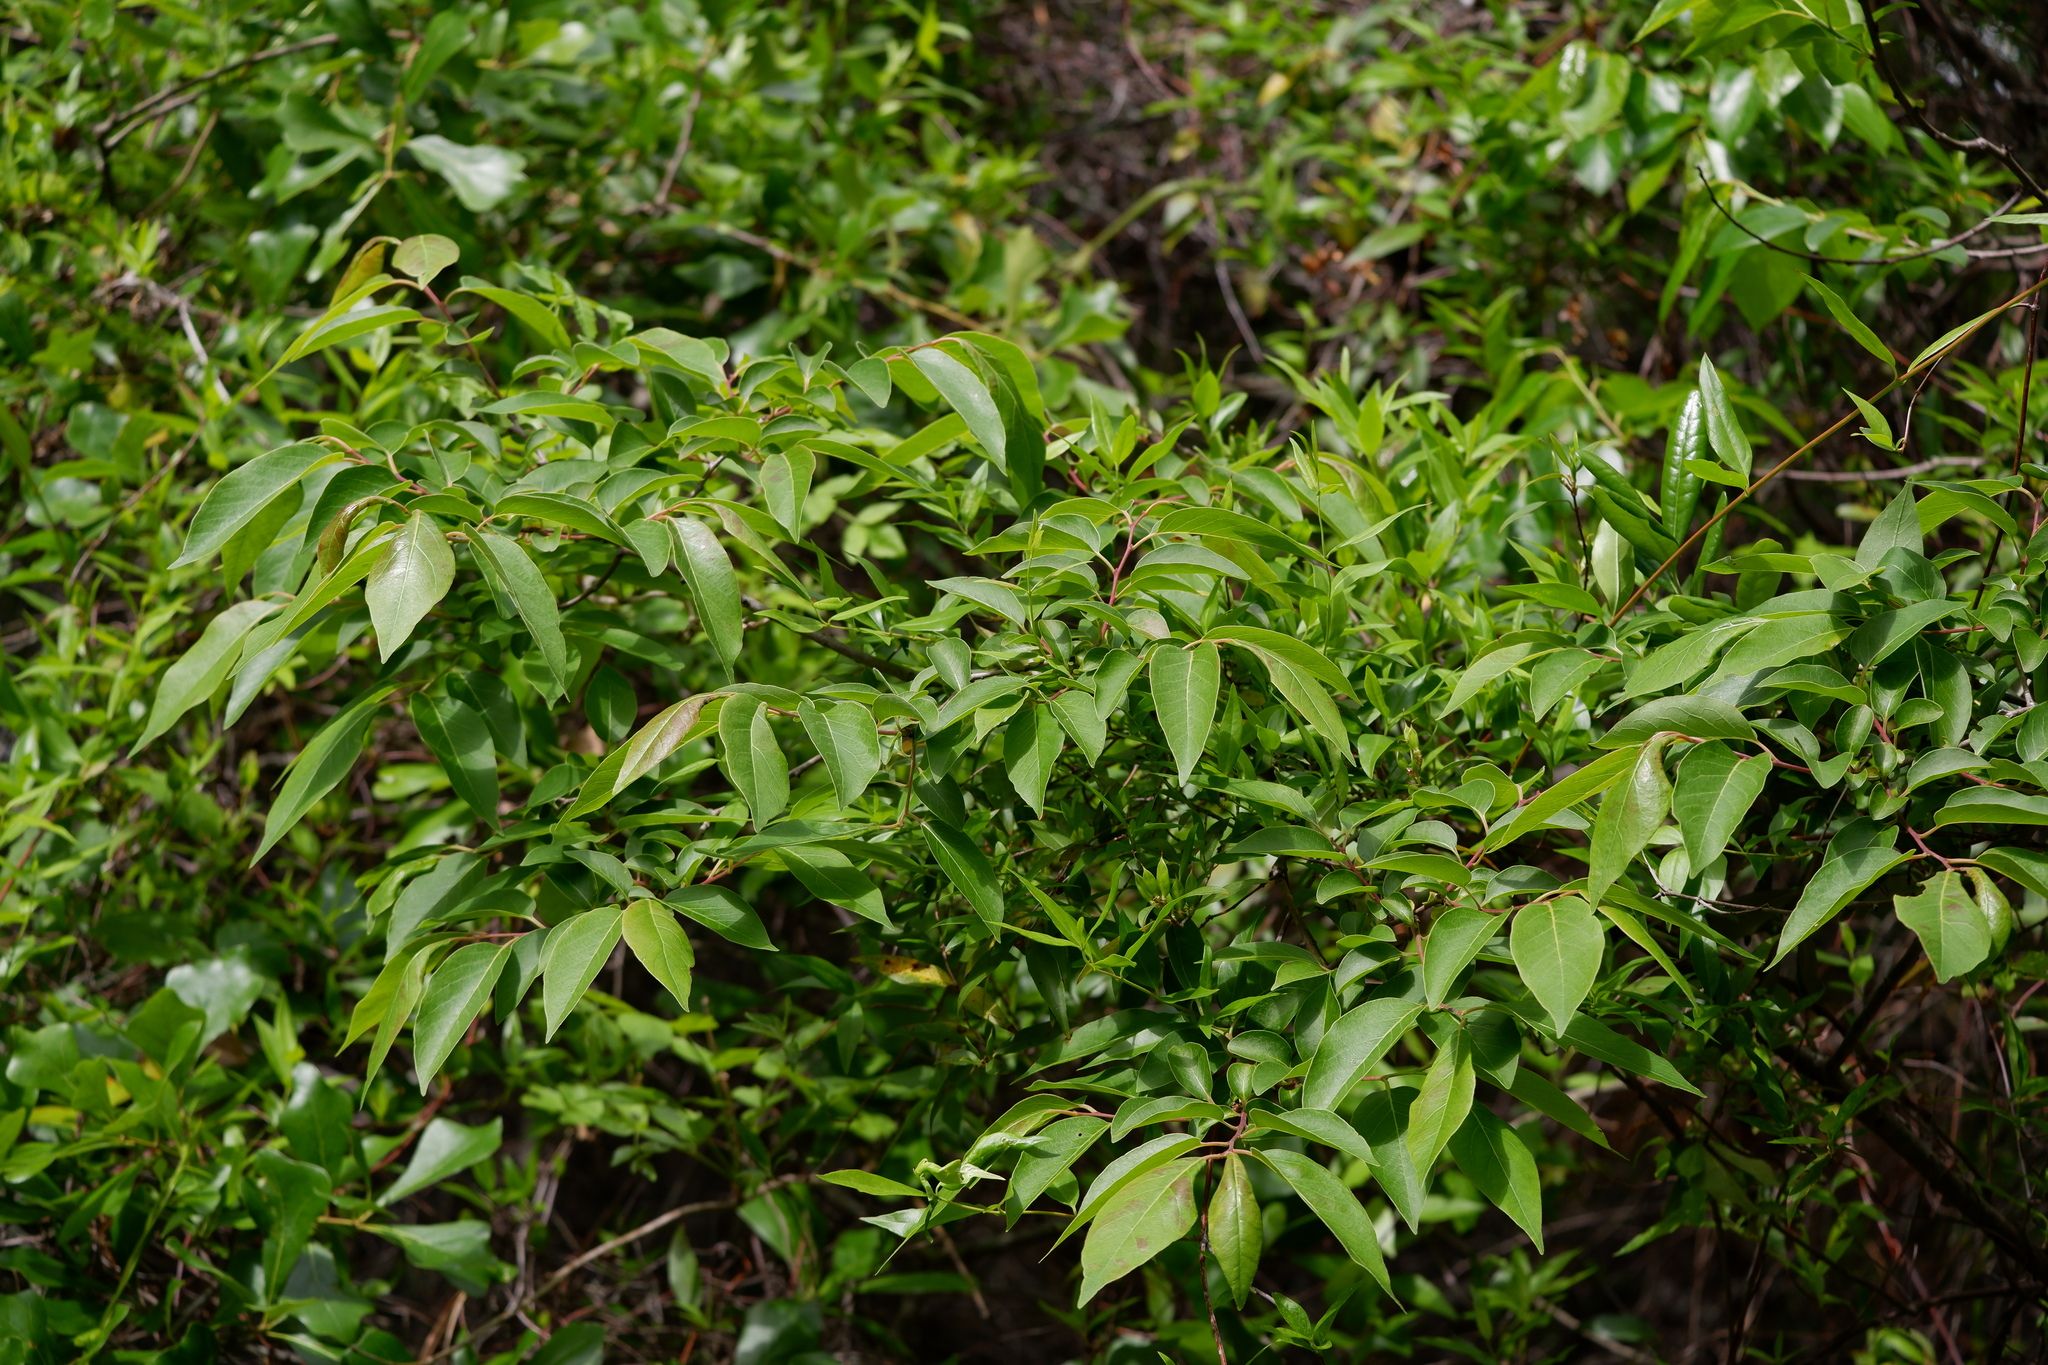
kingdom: Plantae
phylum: Tracheophyta
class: Magnoliopsida
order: Ericales
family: Ebenaceae
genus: Diospyros
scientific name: Diospyros virginiana
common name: Persimmon
